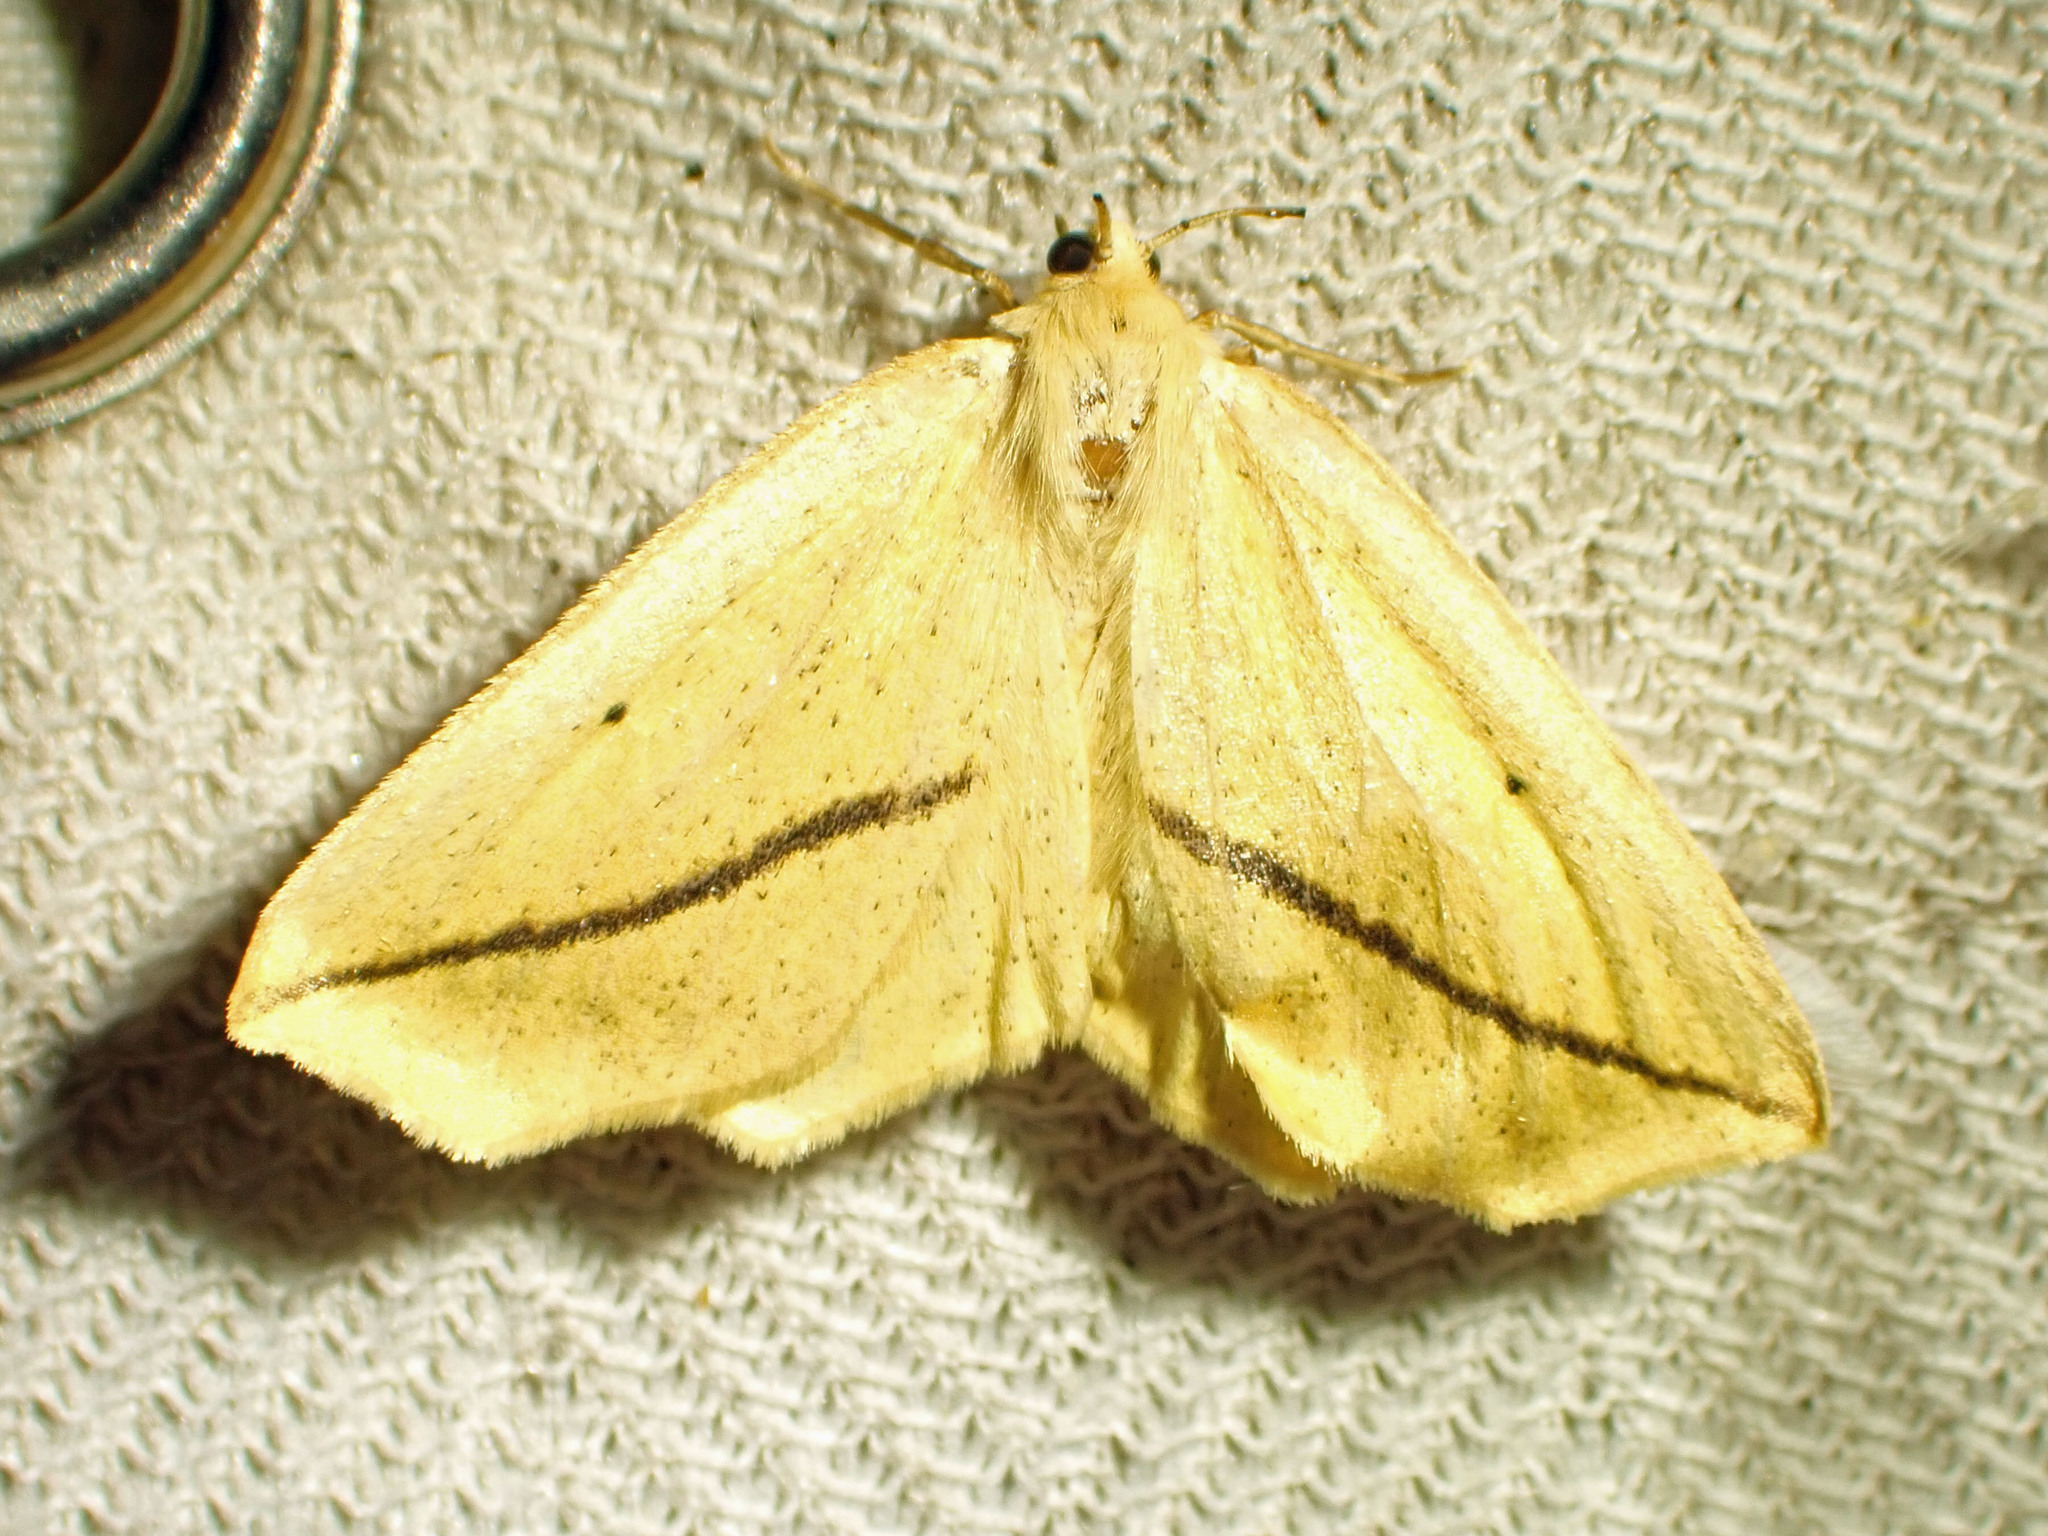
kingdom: Animalia
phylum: Arthropoda
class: Insecta
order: Lepidoptera
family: Geometridae
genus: Tetracis
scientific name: Tetracis crocallata
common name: Yellow slant-line
